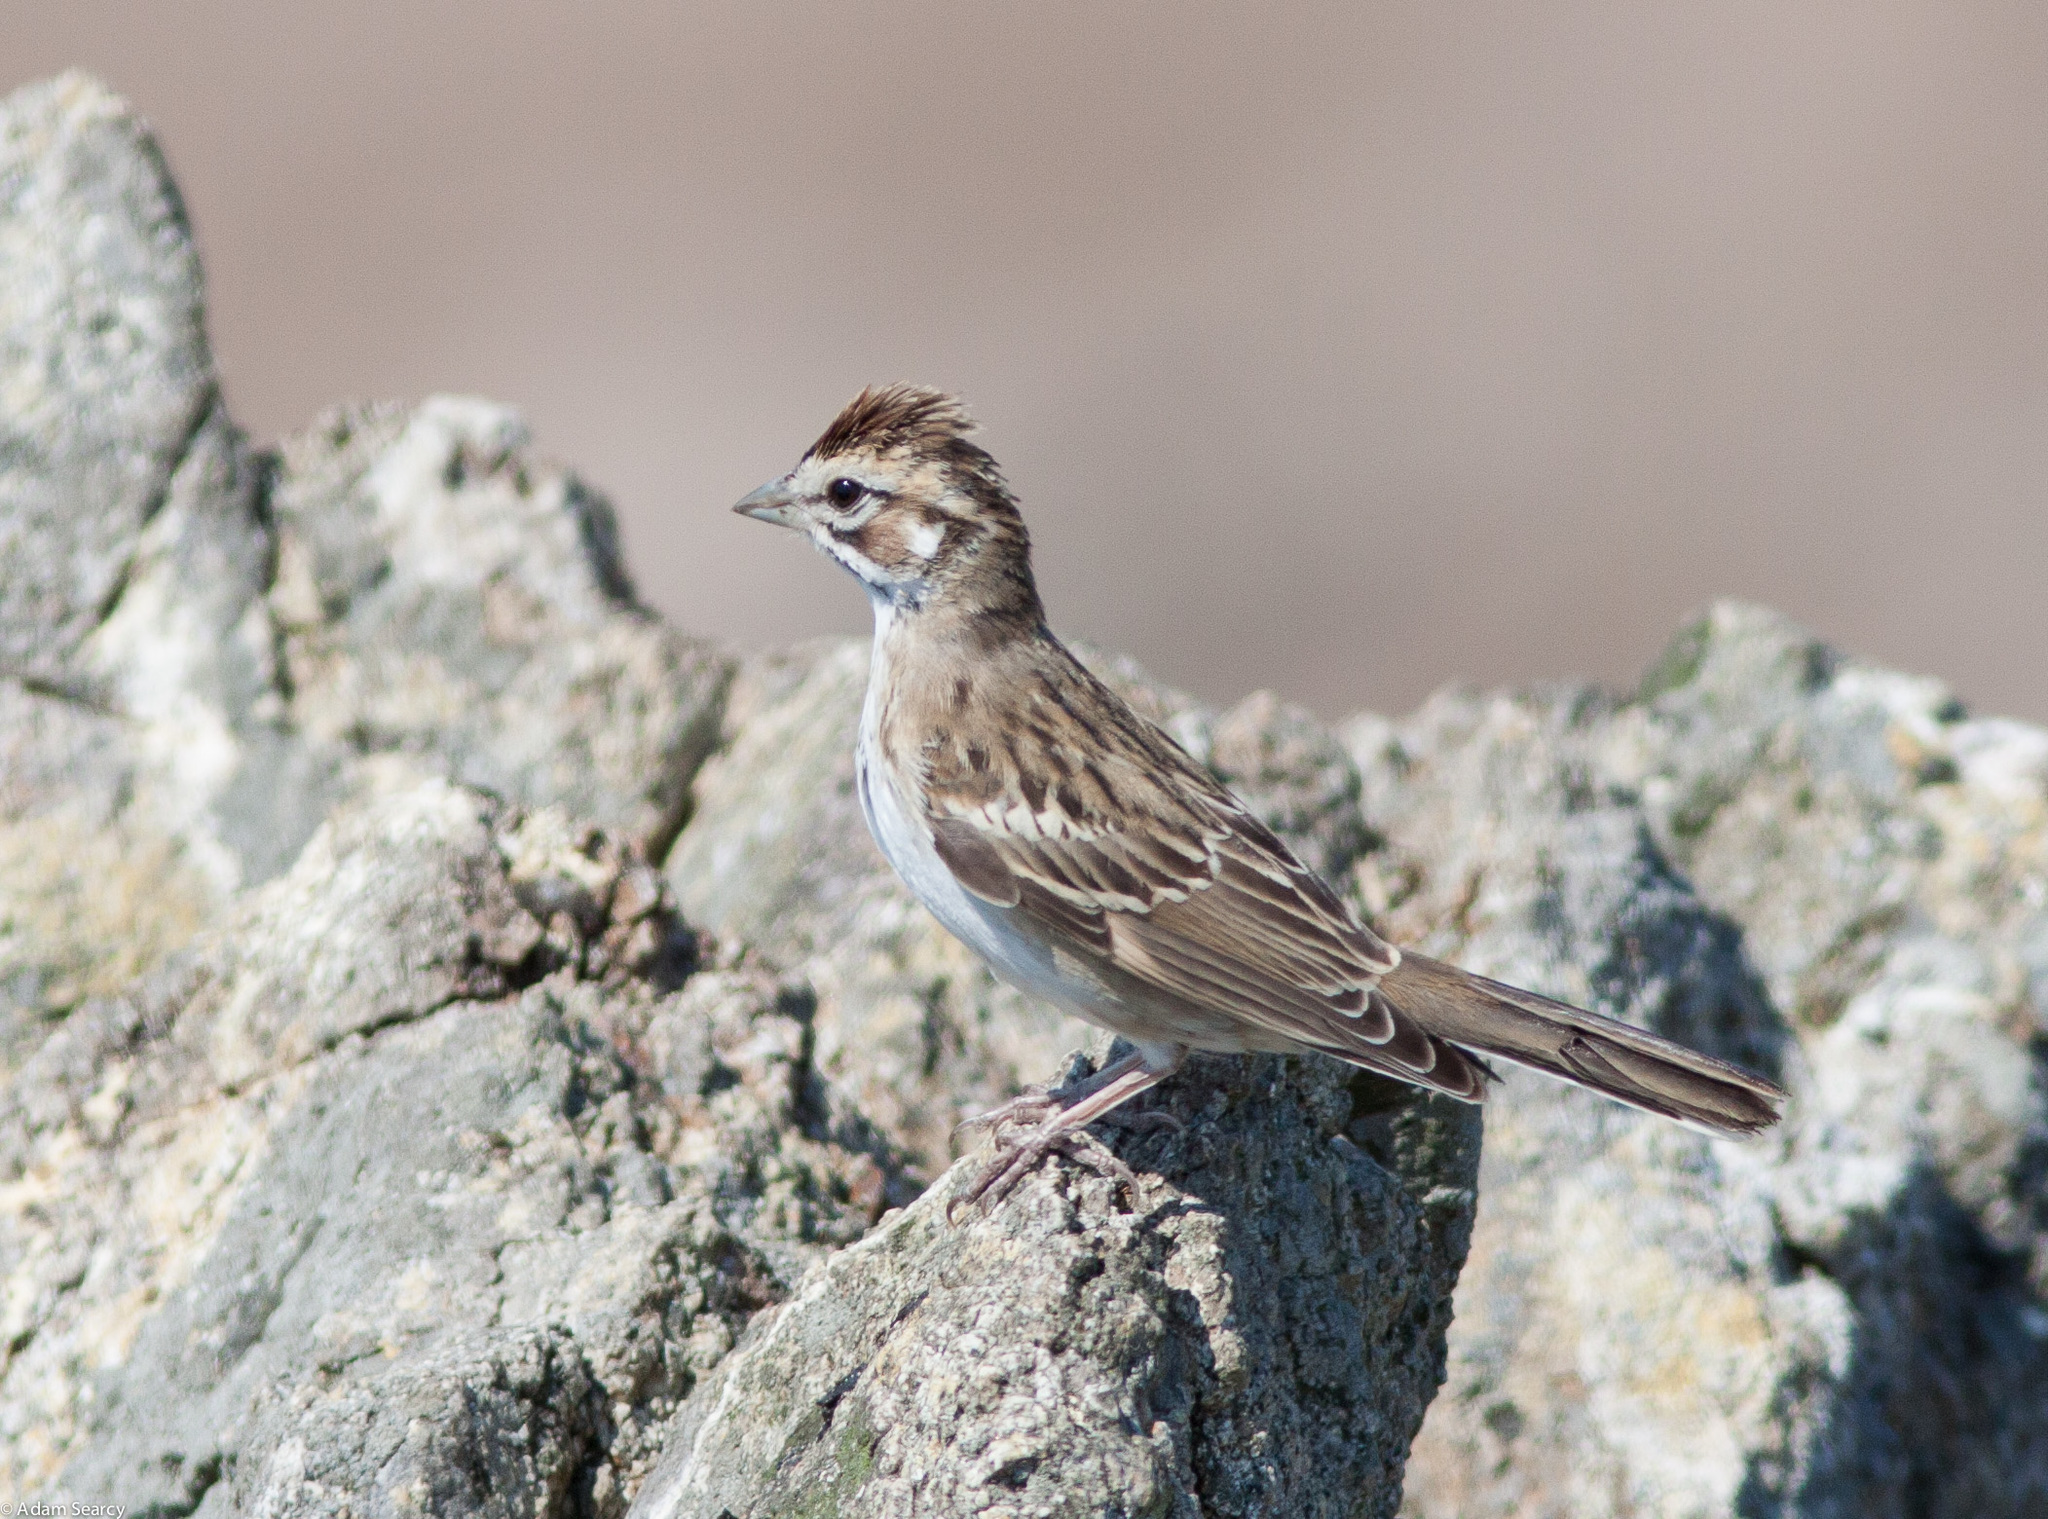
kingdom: Animalia
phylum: Chordata
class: Aves
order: Passeriformes
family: Passerellidae
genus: Chondestes
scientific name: Chondestes grammacus
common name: Lark sparrow
